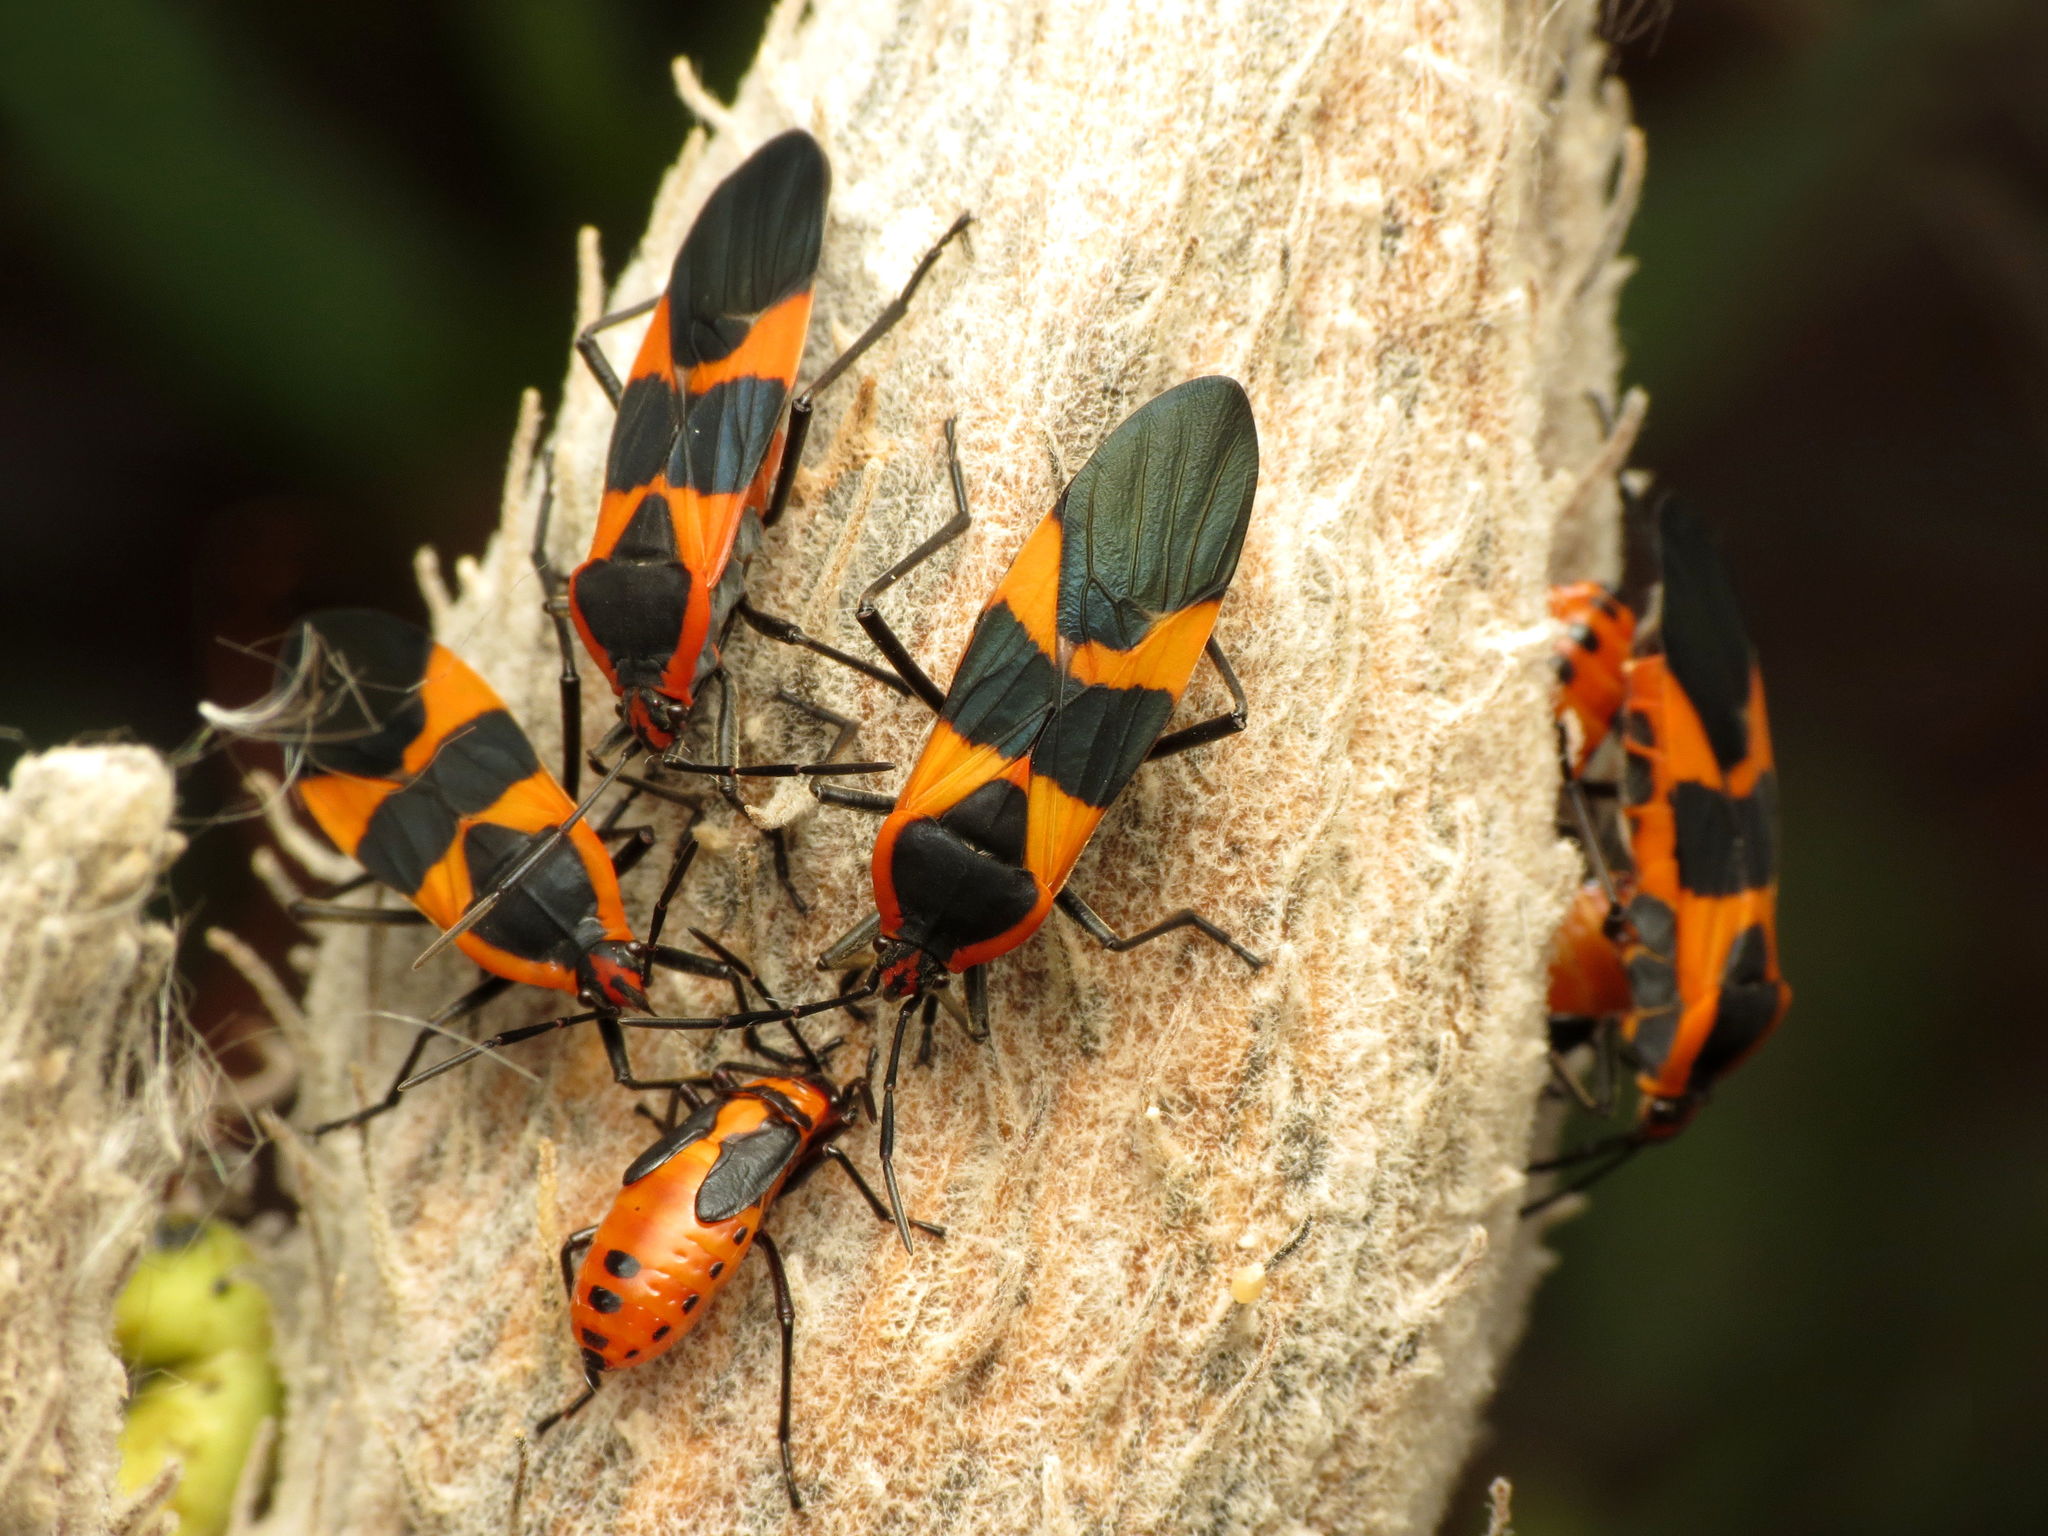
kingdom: Animalia
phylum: Arthropoda
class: Insecta
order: Hemiptera
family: Lygaeidae
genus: Oncopeltus
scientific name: Oncopeltus fasciatus
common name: Large milkweed bug
